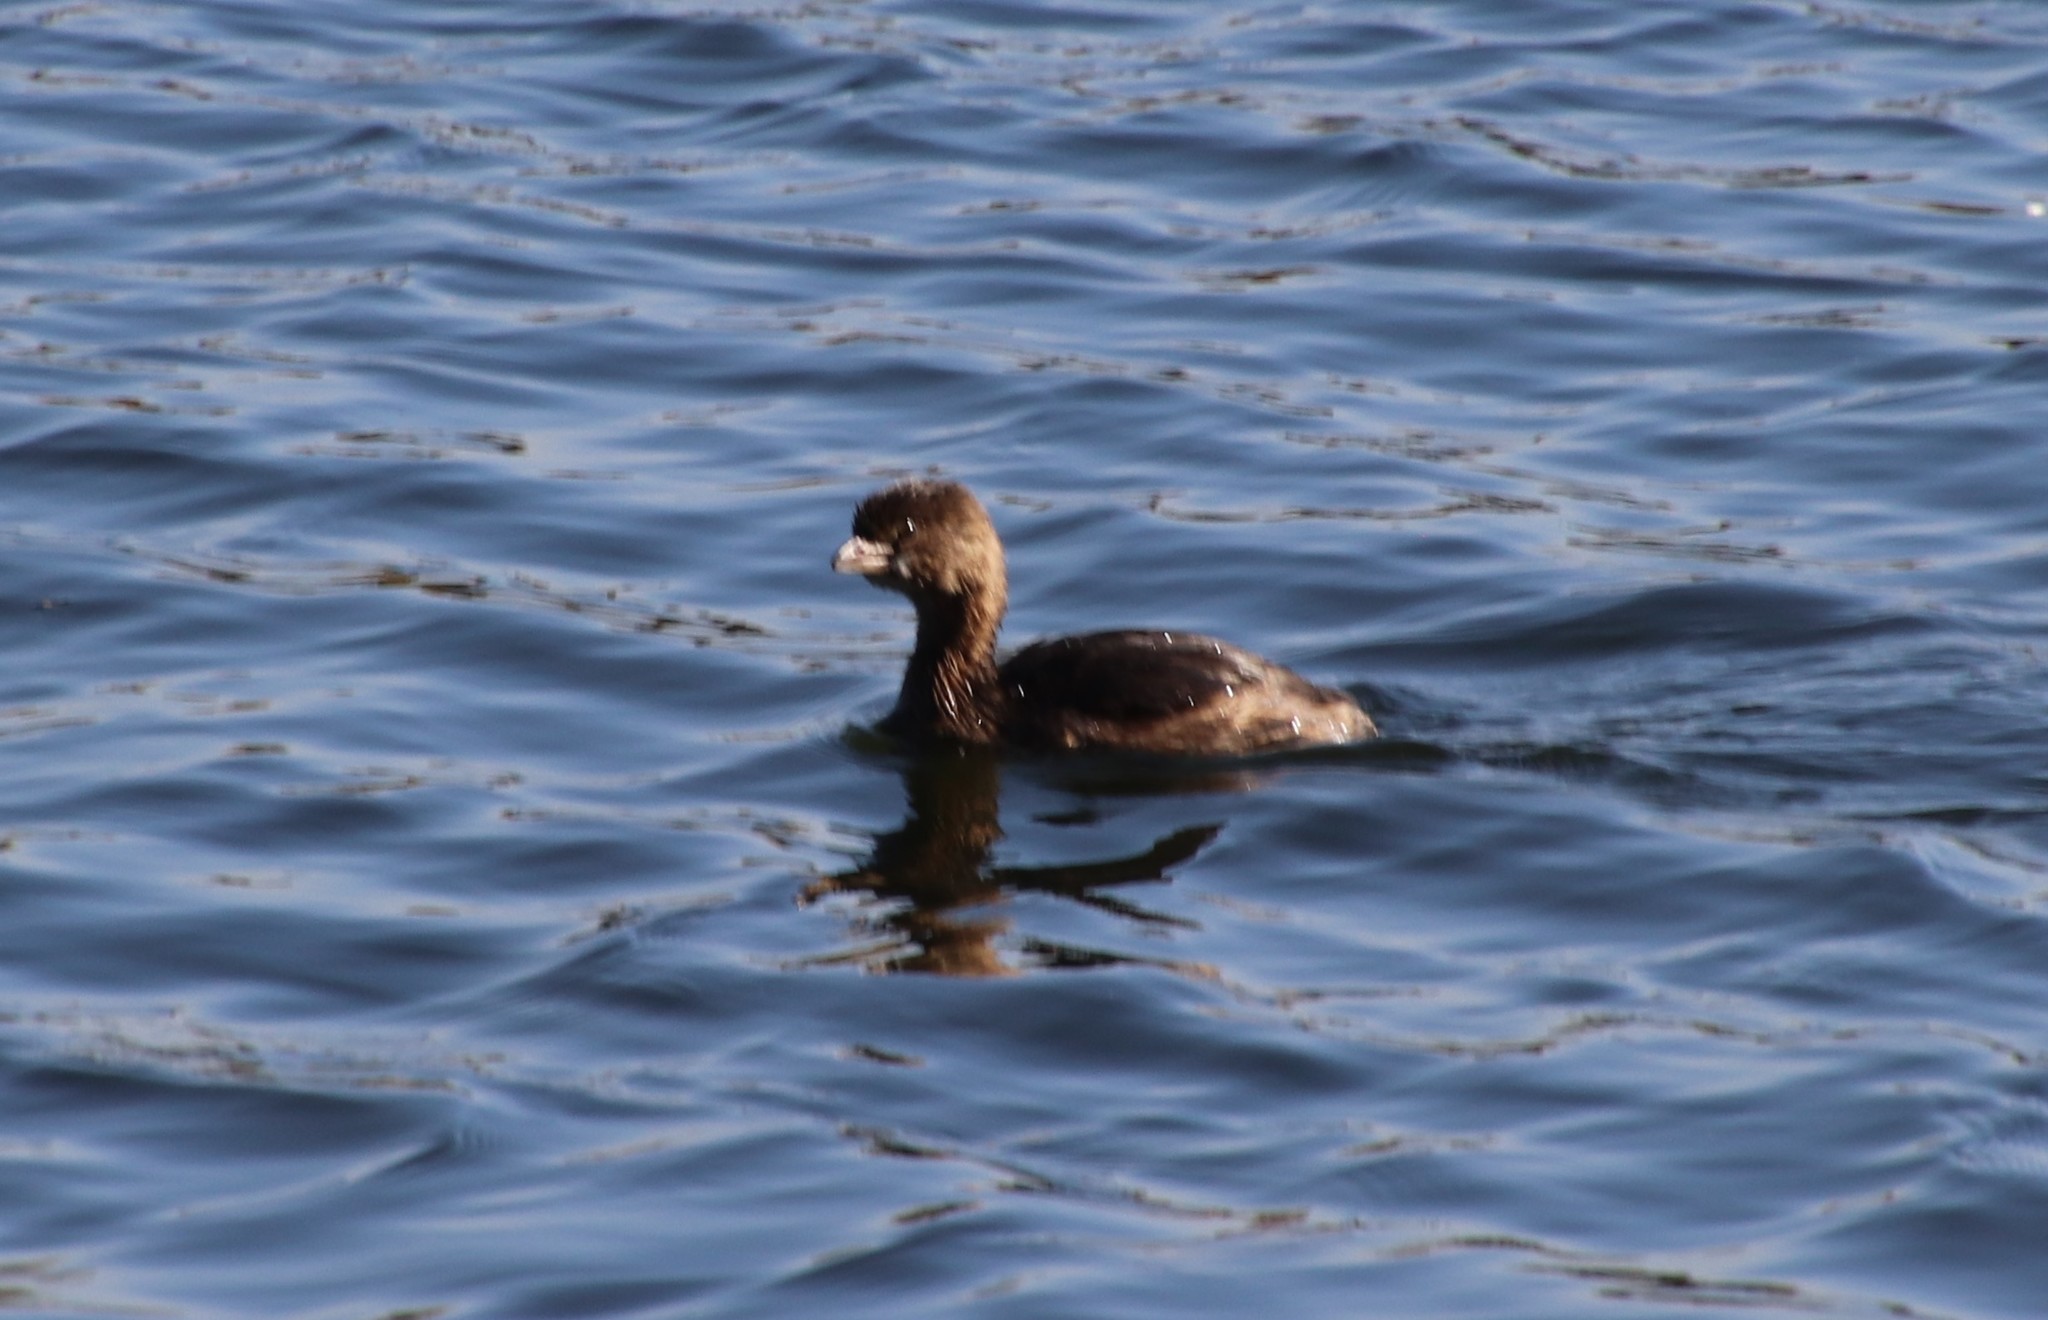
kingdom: Animalia
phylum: Chordata
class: Aves
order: Podicipediformes
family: Podicipedidae
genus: Podilymbus
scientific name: Podilymbus podiceps
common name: Pied-billed grebe
